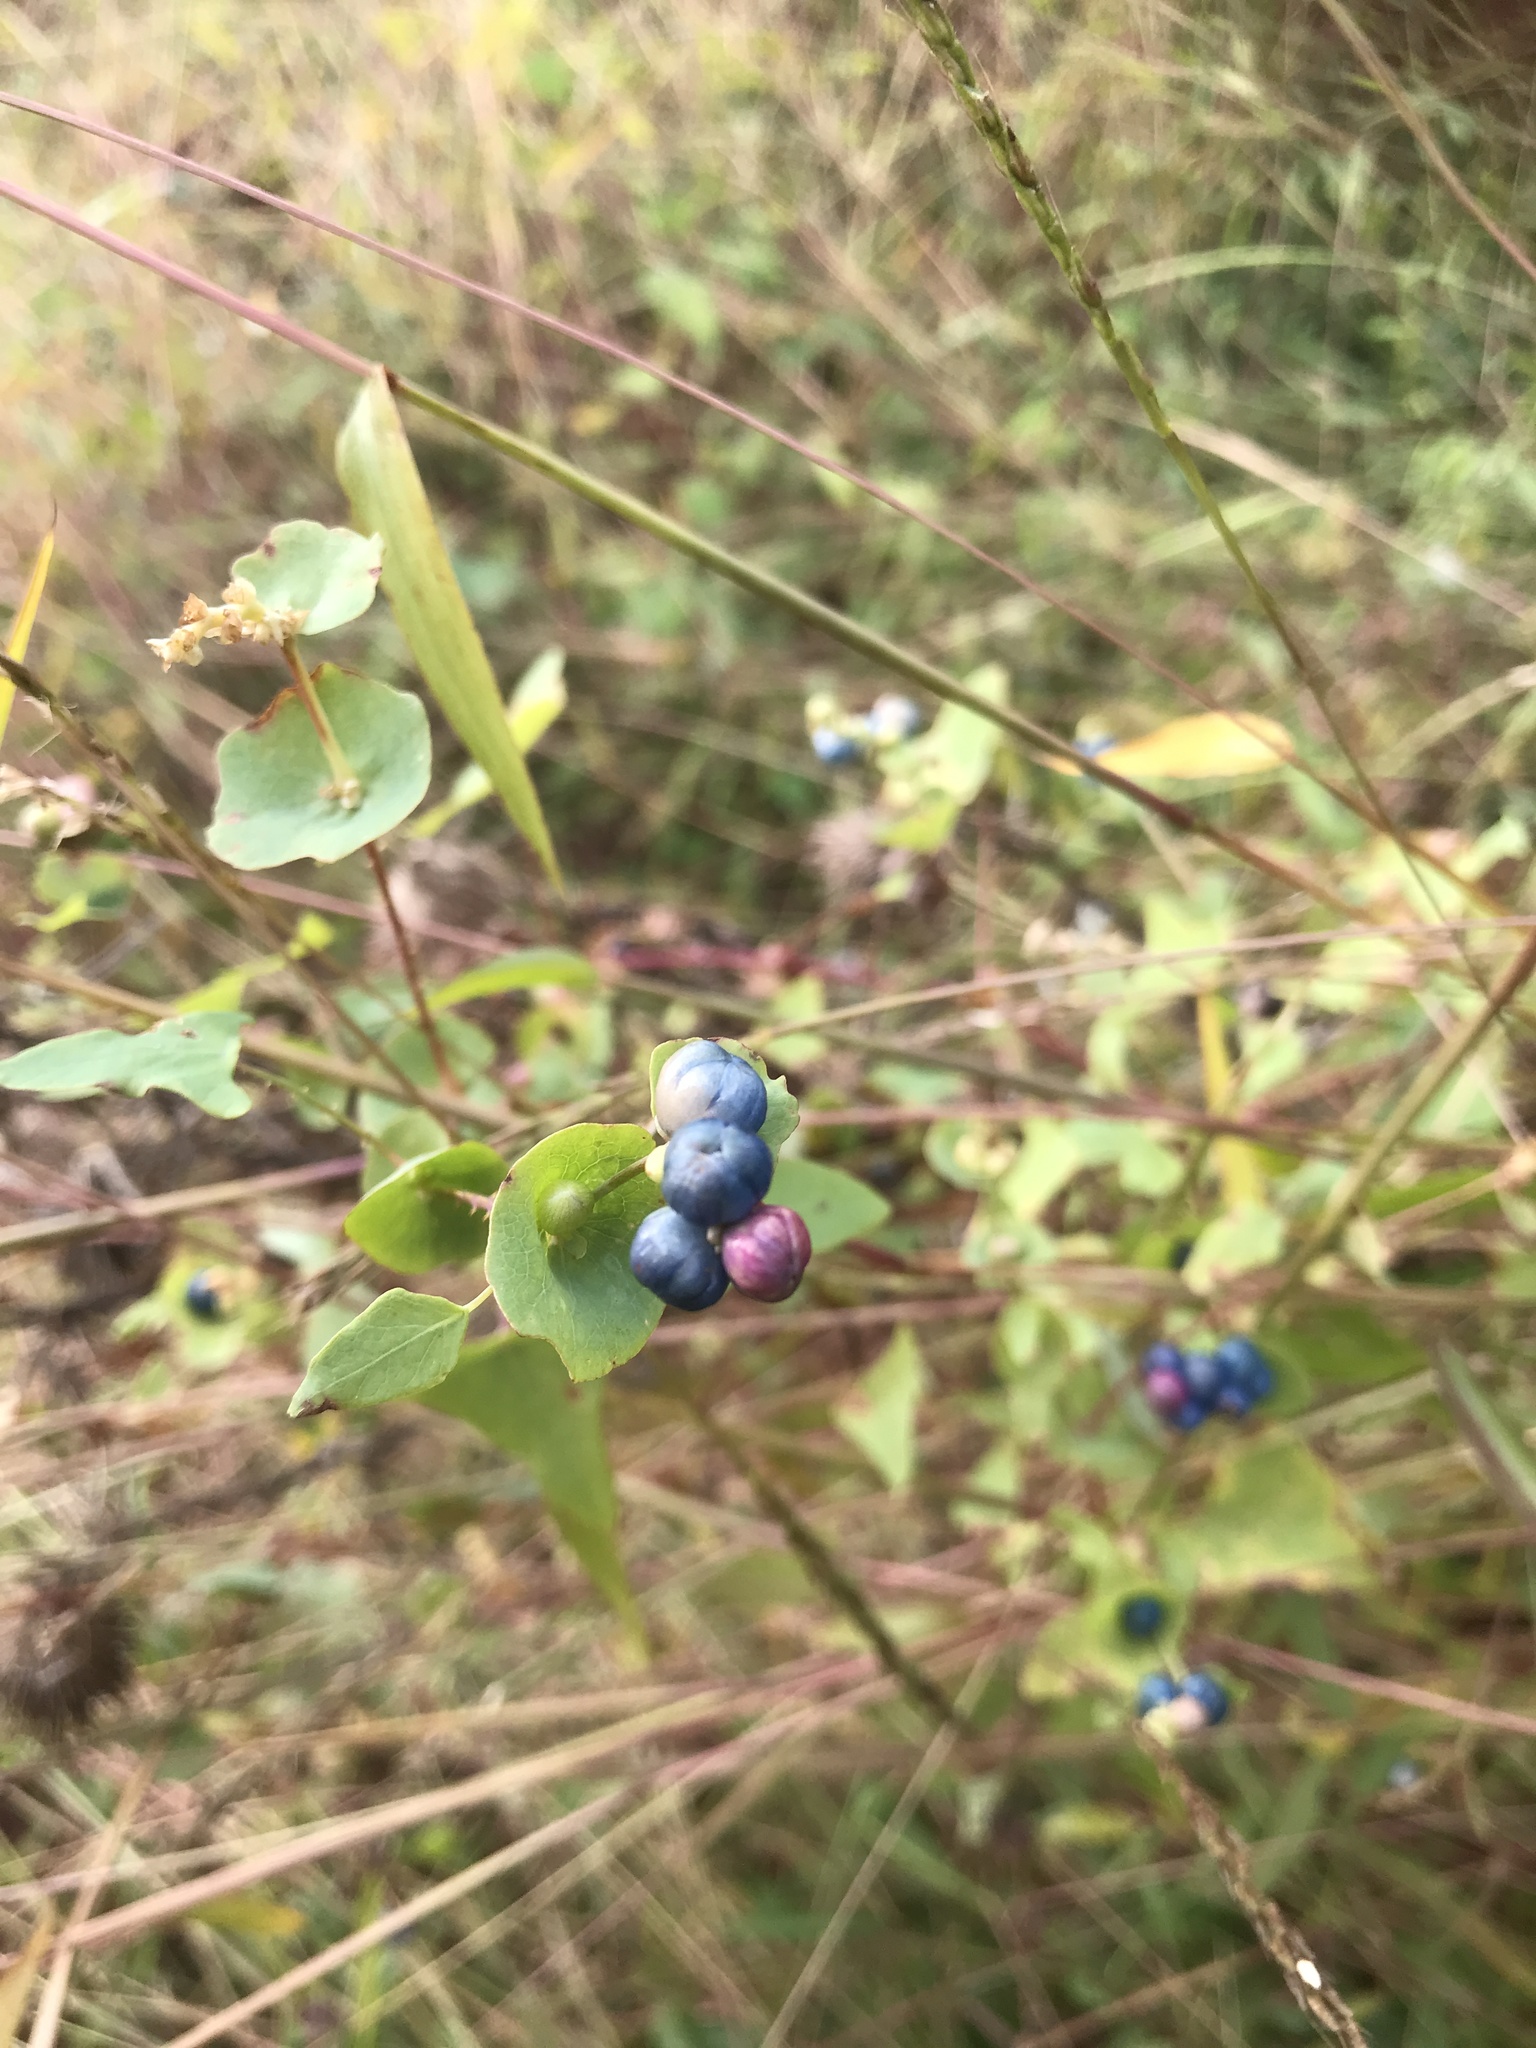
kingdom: Plantae
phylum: Tracheophyta
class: Magnoliopsida
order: Caryophyllales
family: Polygonaceae
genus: Persicaria
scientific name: Persicaria perfoliata
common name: Asiatic tearthumb
